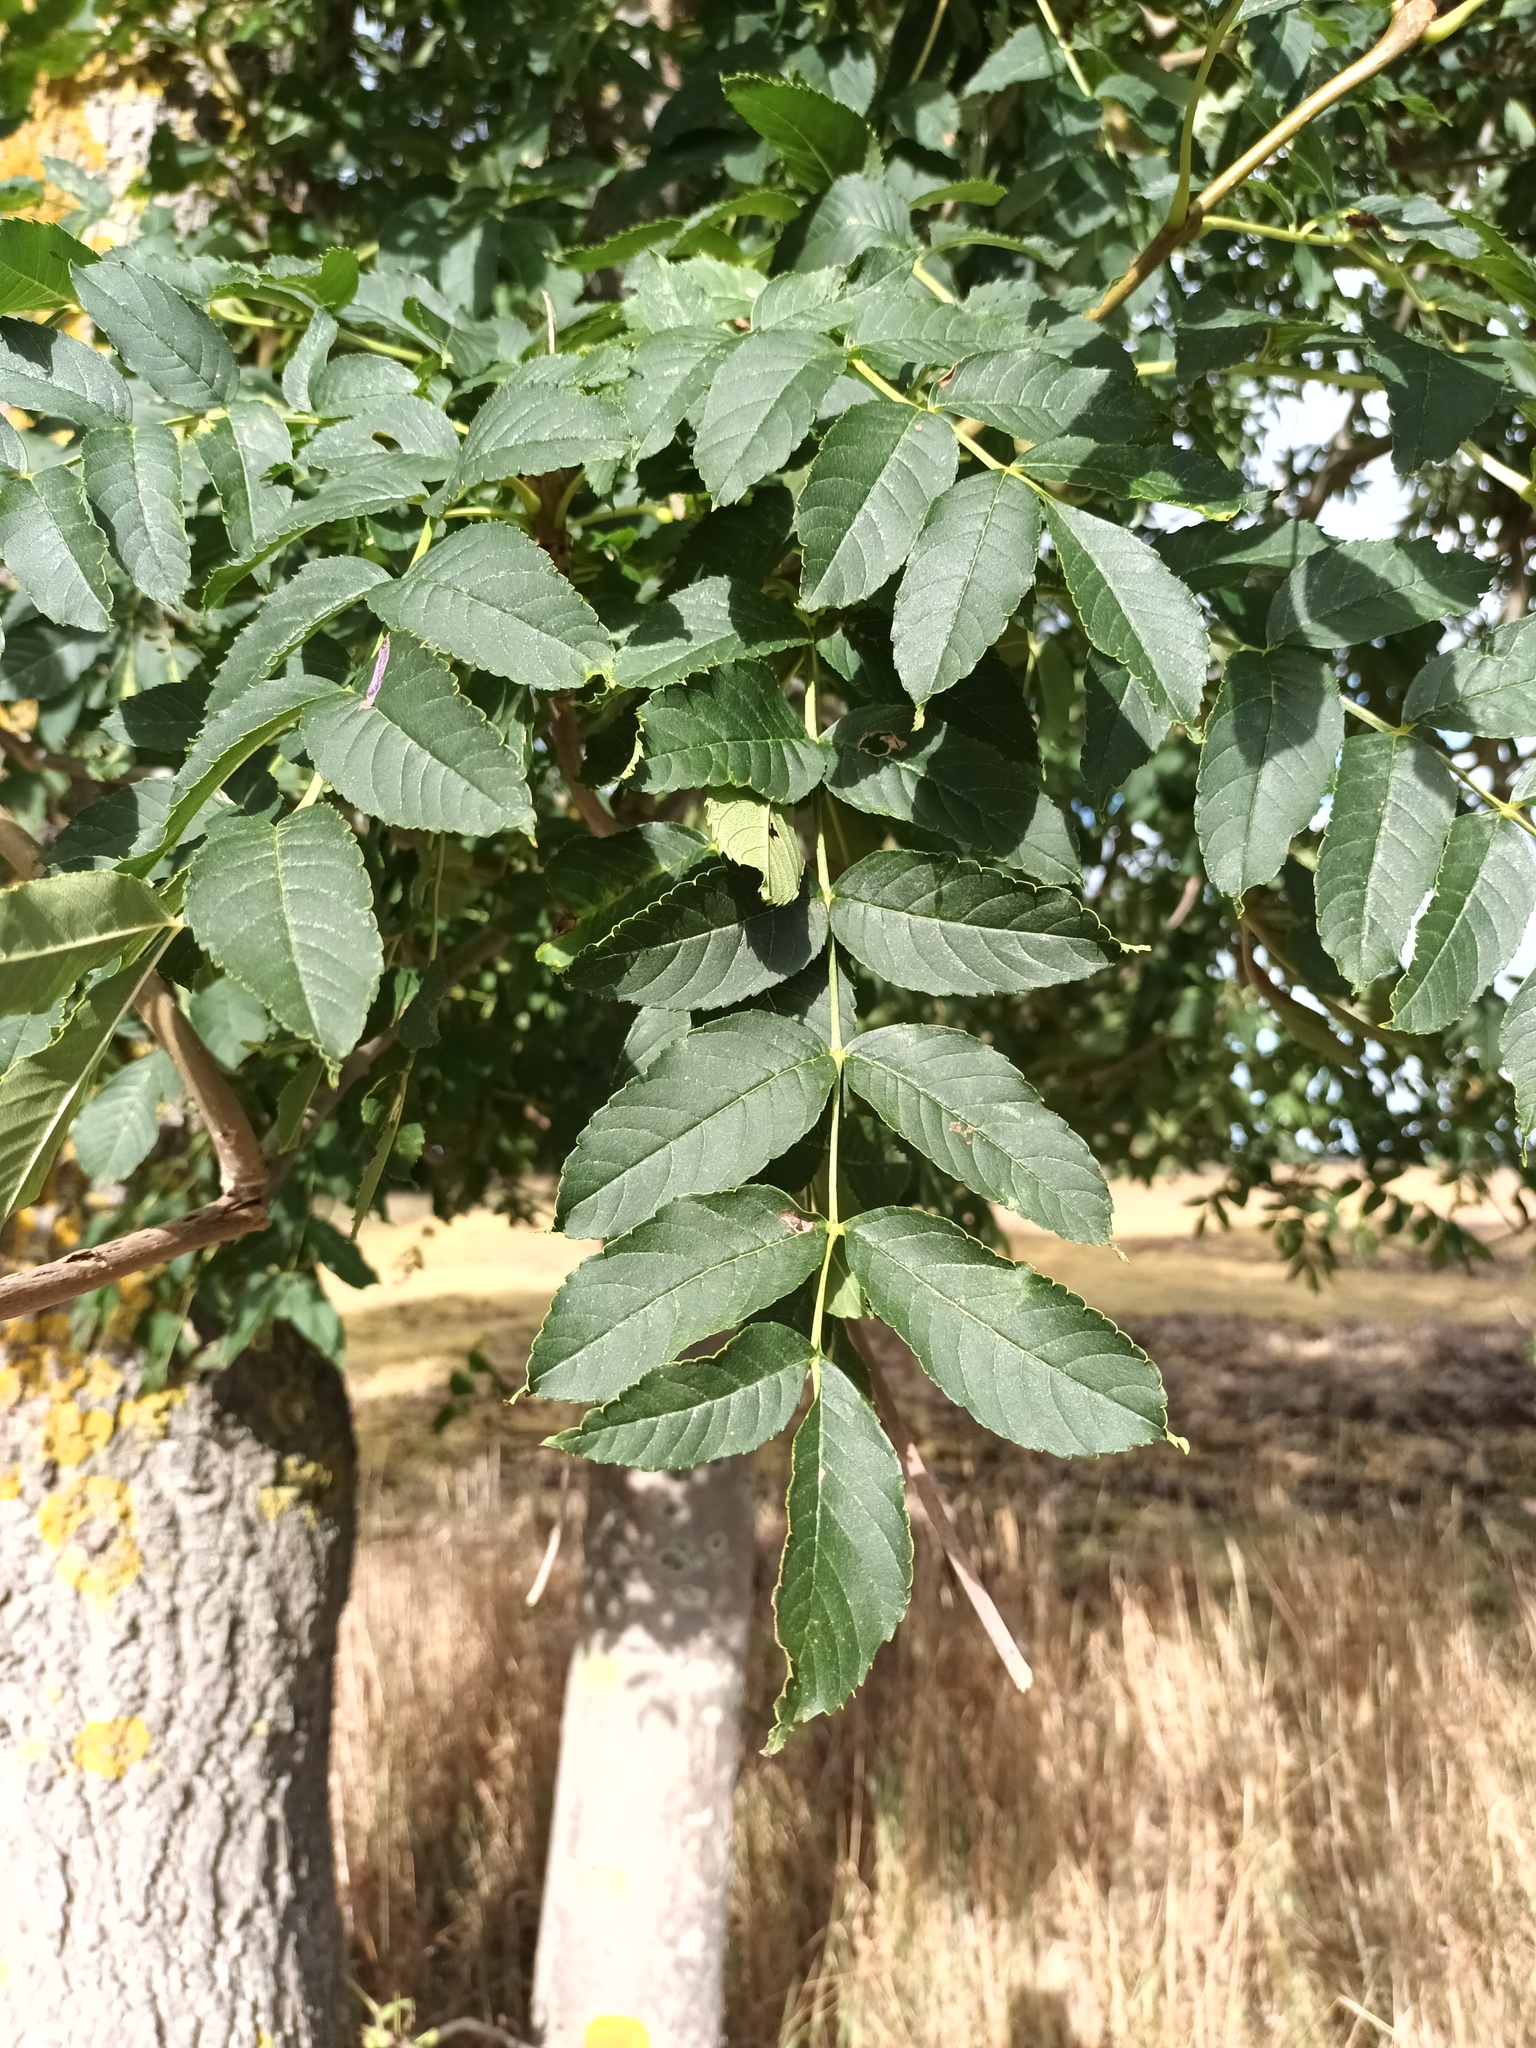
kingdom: Plantae
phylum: Tracheophyta
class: Magnoliopsida
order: Lamiales
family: Oleaceae
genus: Fraxinus
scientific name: Fraxinus excelsior
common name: European ash
